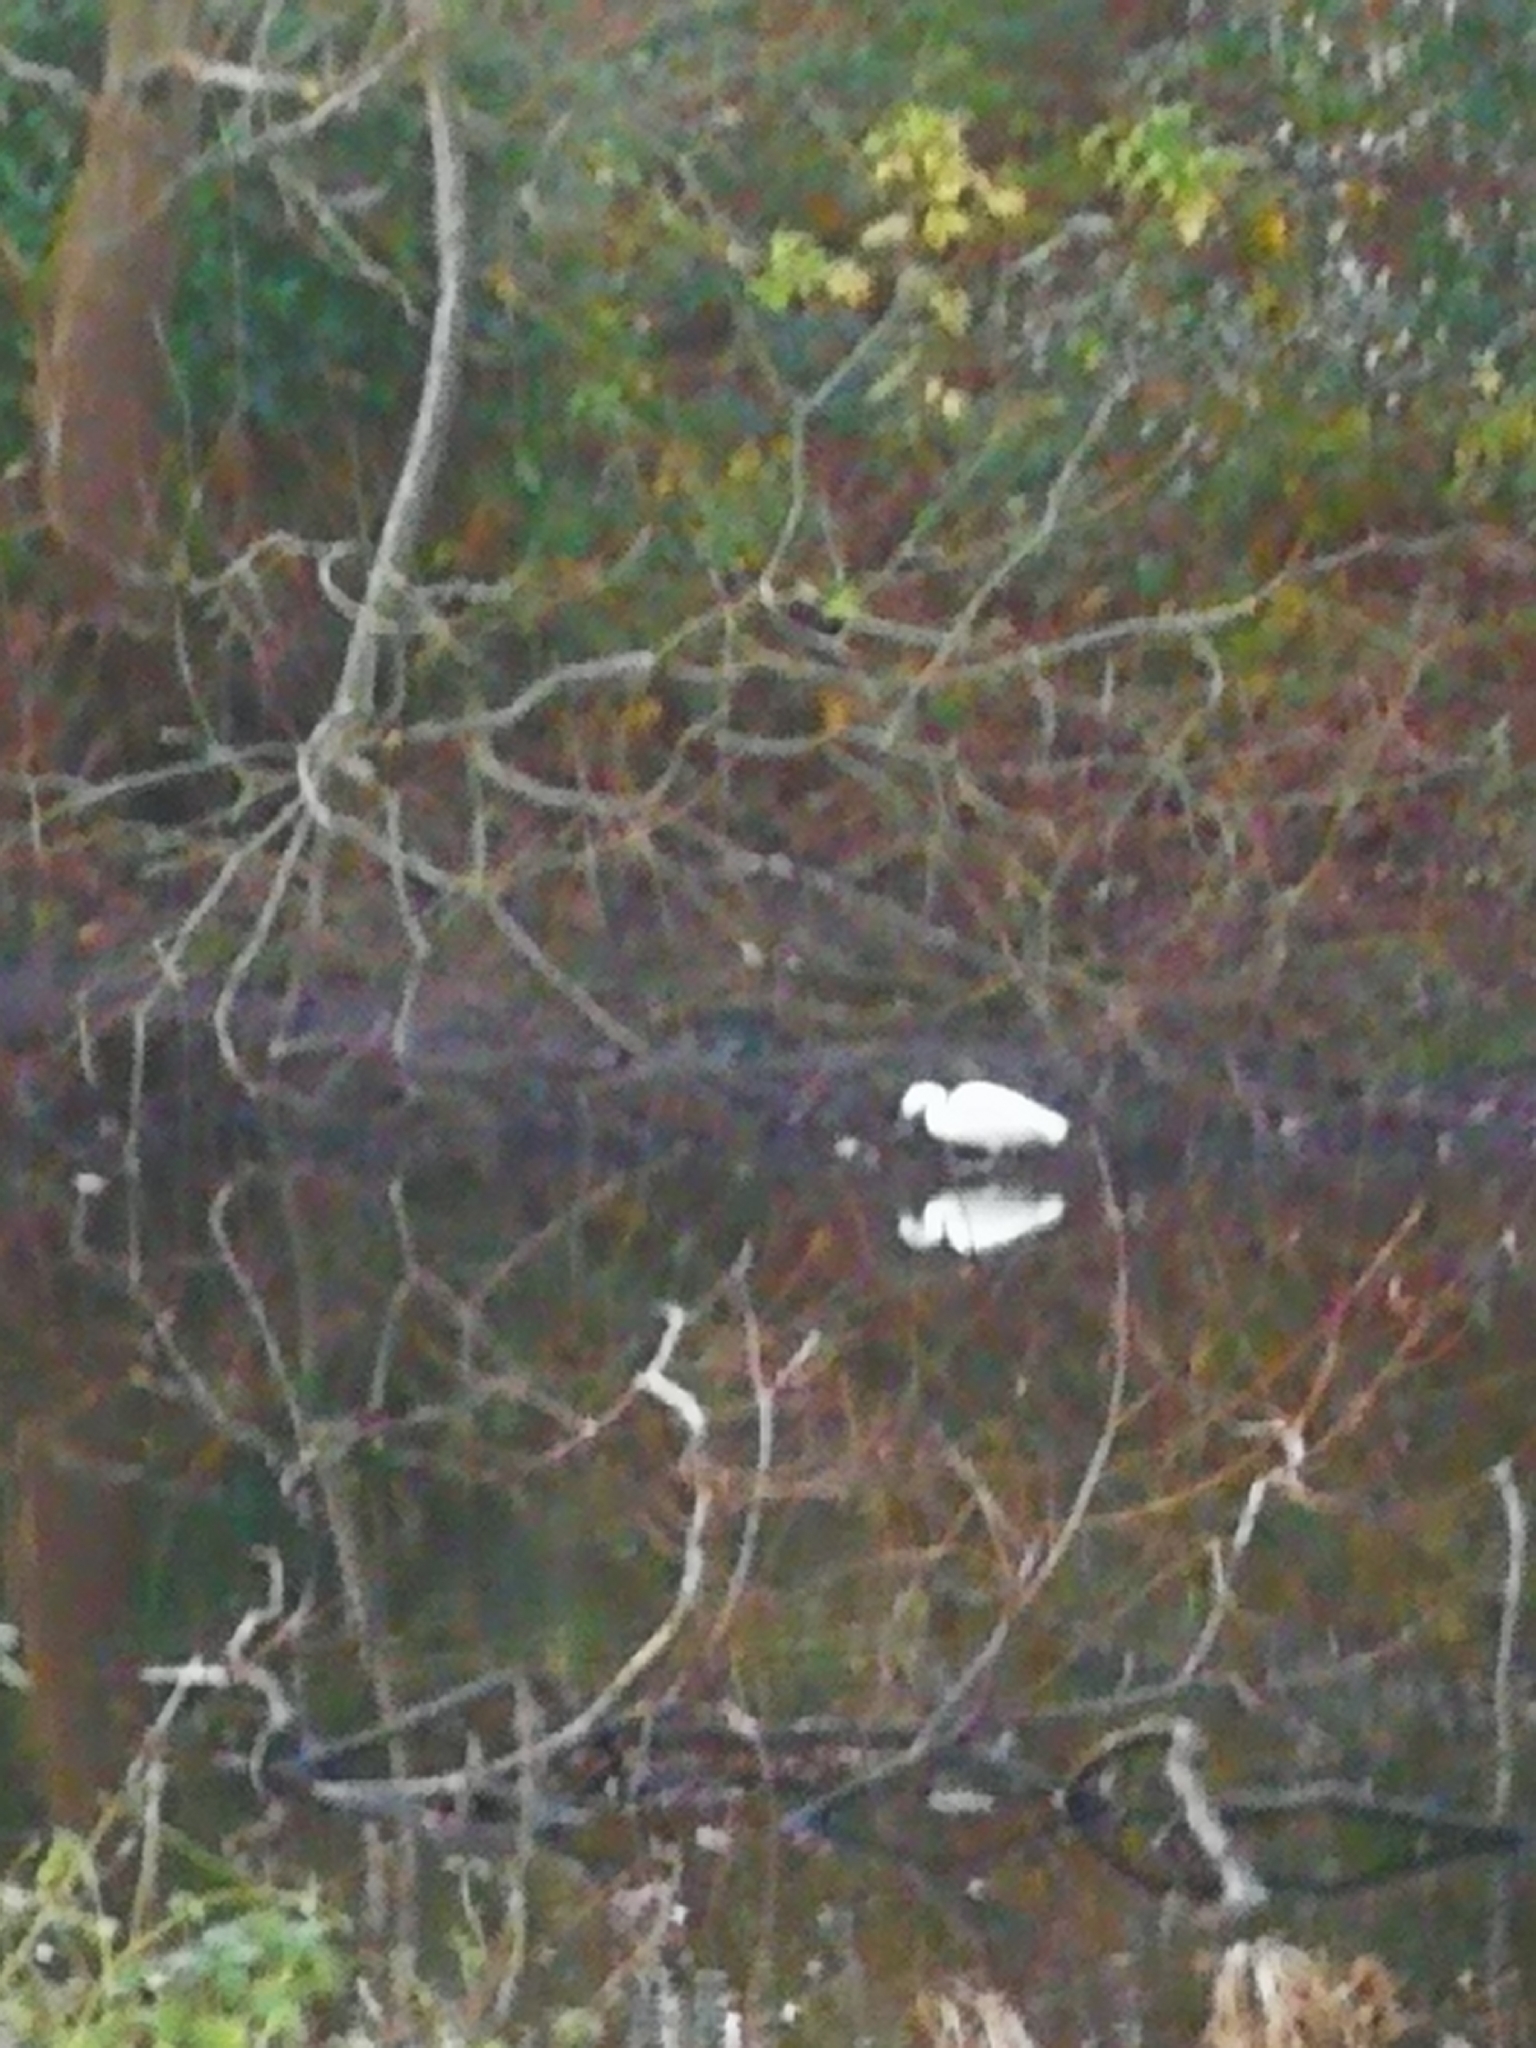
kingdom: Animalia
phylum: Chordata
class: Aves
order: Pelecaniformes
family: Ardeidae
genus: Egretta
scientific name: Egretta garzetta
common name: Little egret
